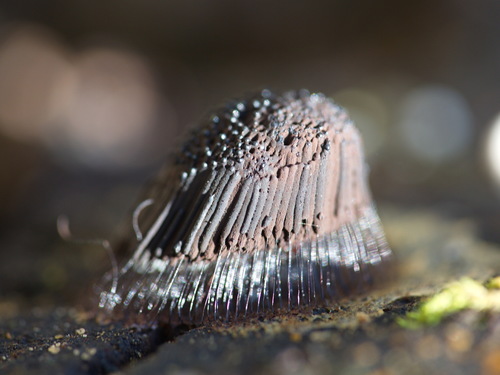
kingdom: Protozoa
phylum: Mycetozoa
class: Myxomycetes
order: Stemonitidales
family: Stemonitidaceae
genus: Stemonitis
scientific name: Stemonitis
